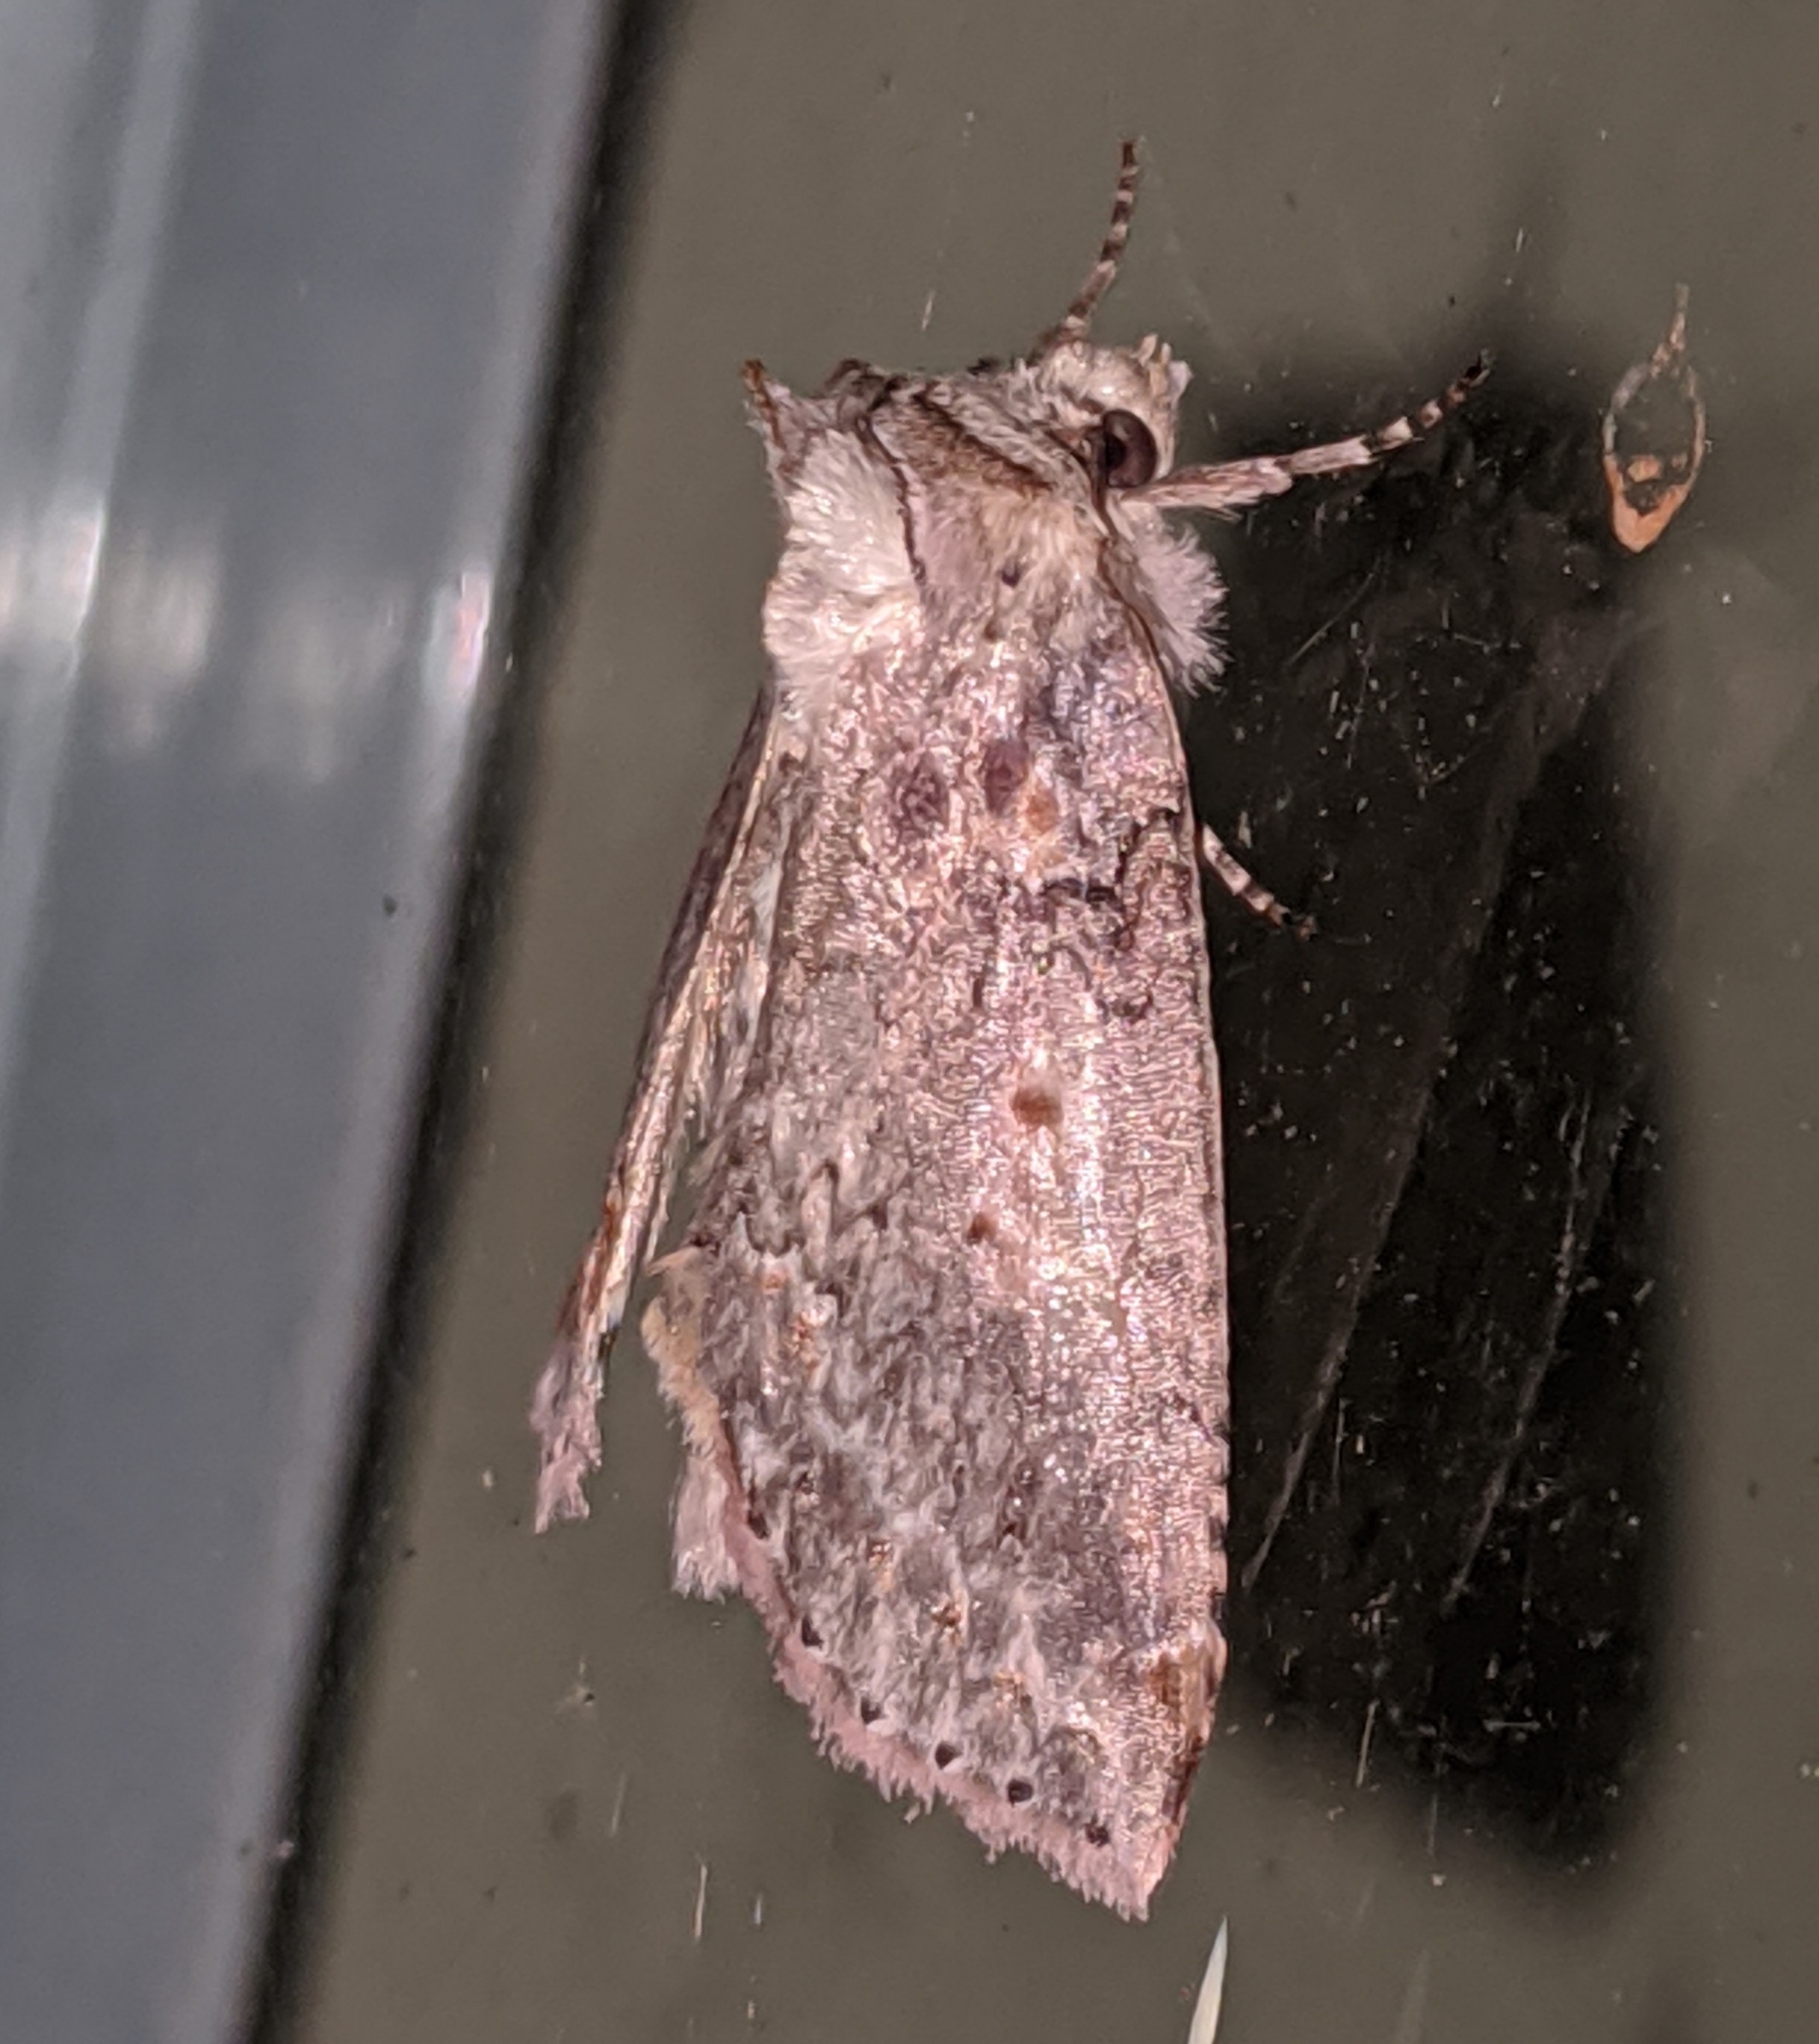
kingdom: Animalia
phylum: Arthropoda
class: Insecta
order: Lepidoptera
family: Drepanidae
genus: Pseudothyatira
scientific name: Pseudothyatira cymatophoroides
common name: Tufted thyatirid moth
